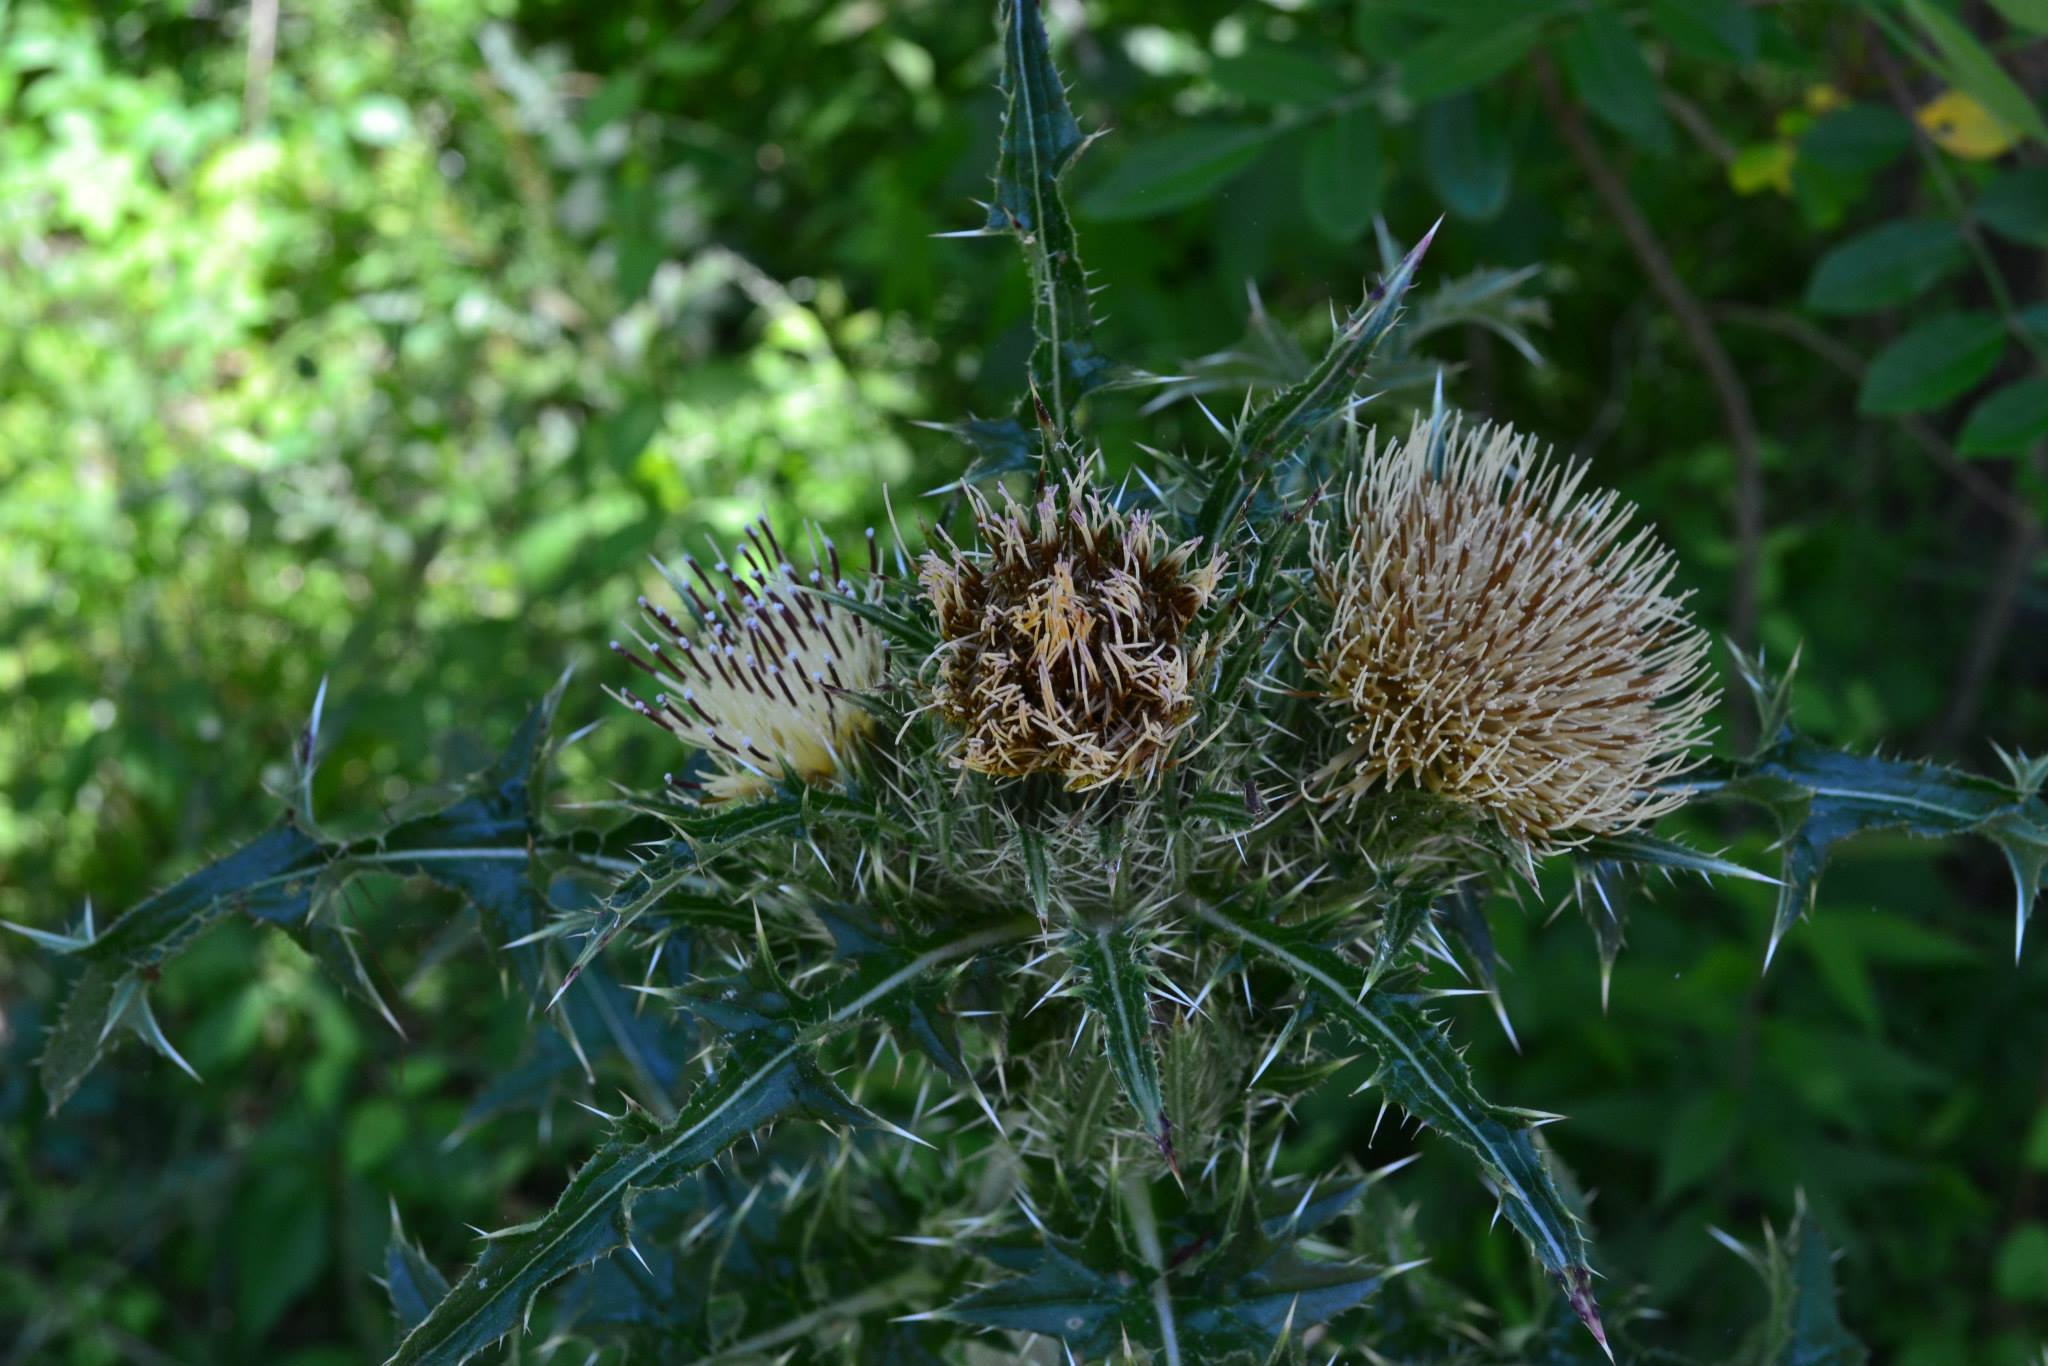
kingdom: Plantae
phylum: Tracheophyta
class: Magnoliopsida
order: Asterales
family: Asteraceae
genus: Cirsium
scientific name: Cirsium horridulum
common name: Bristly thistle
